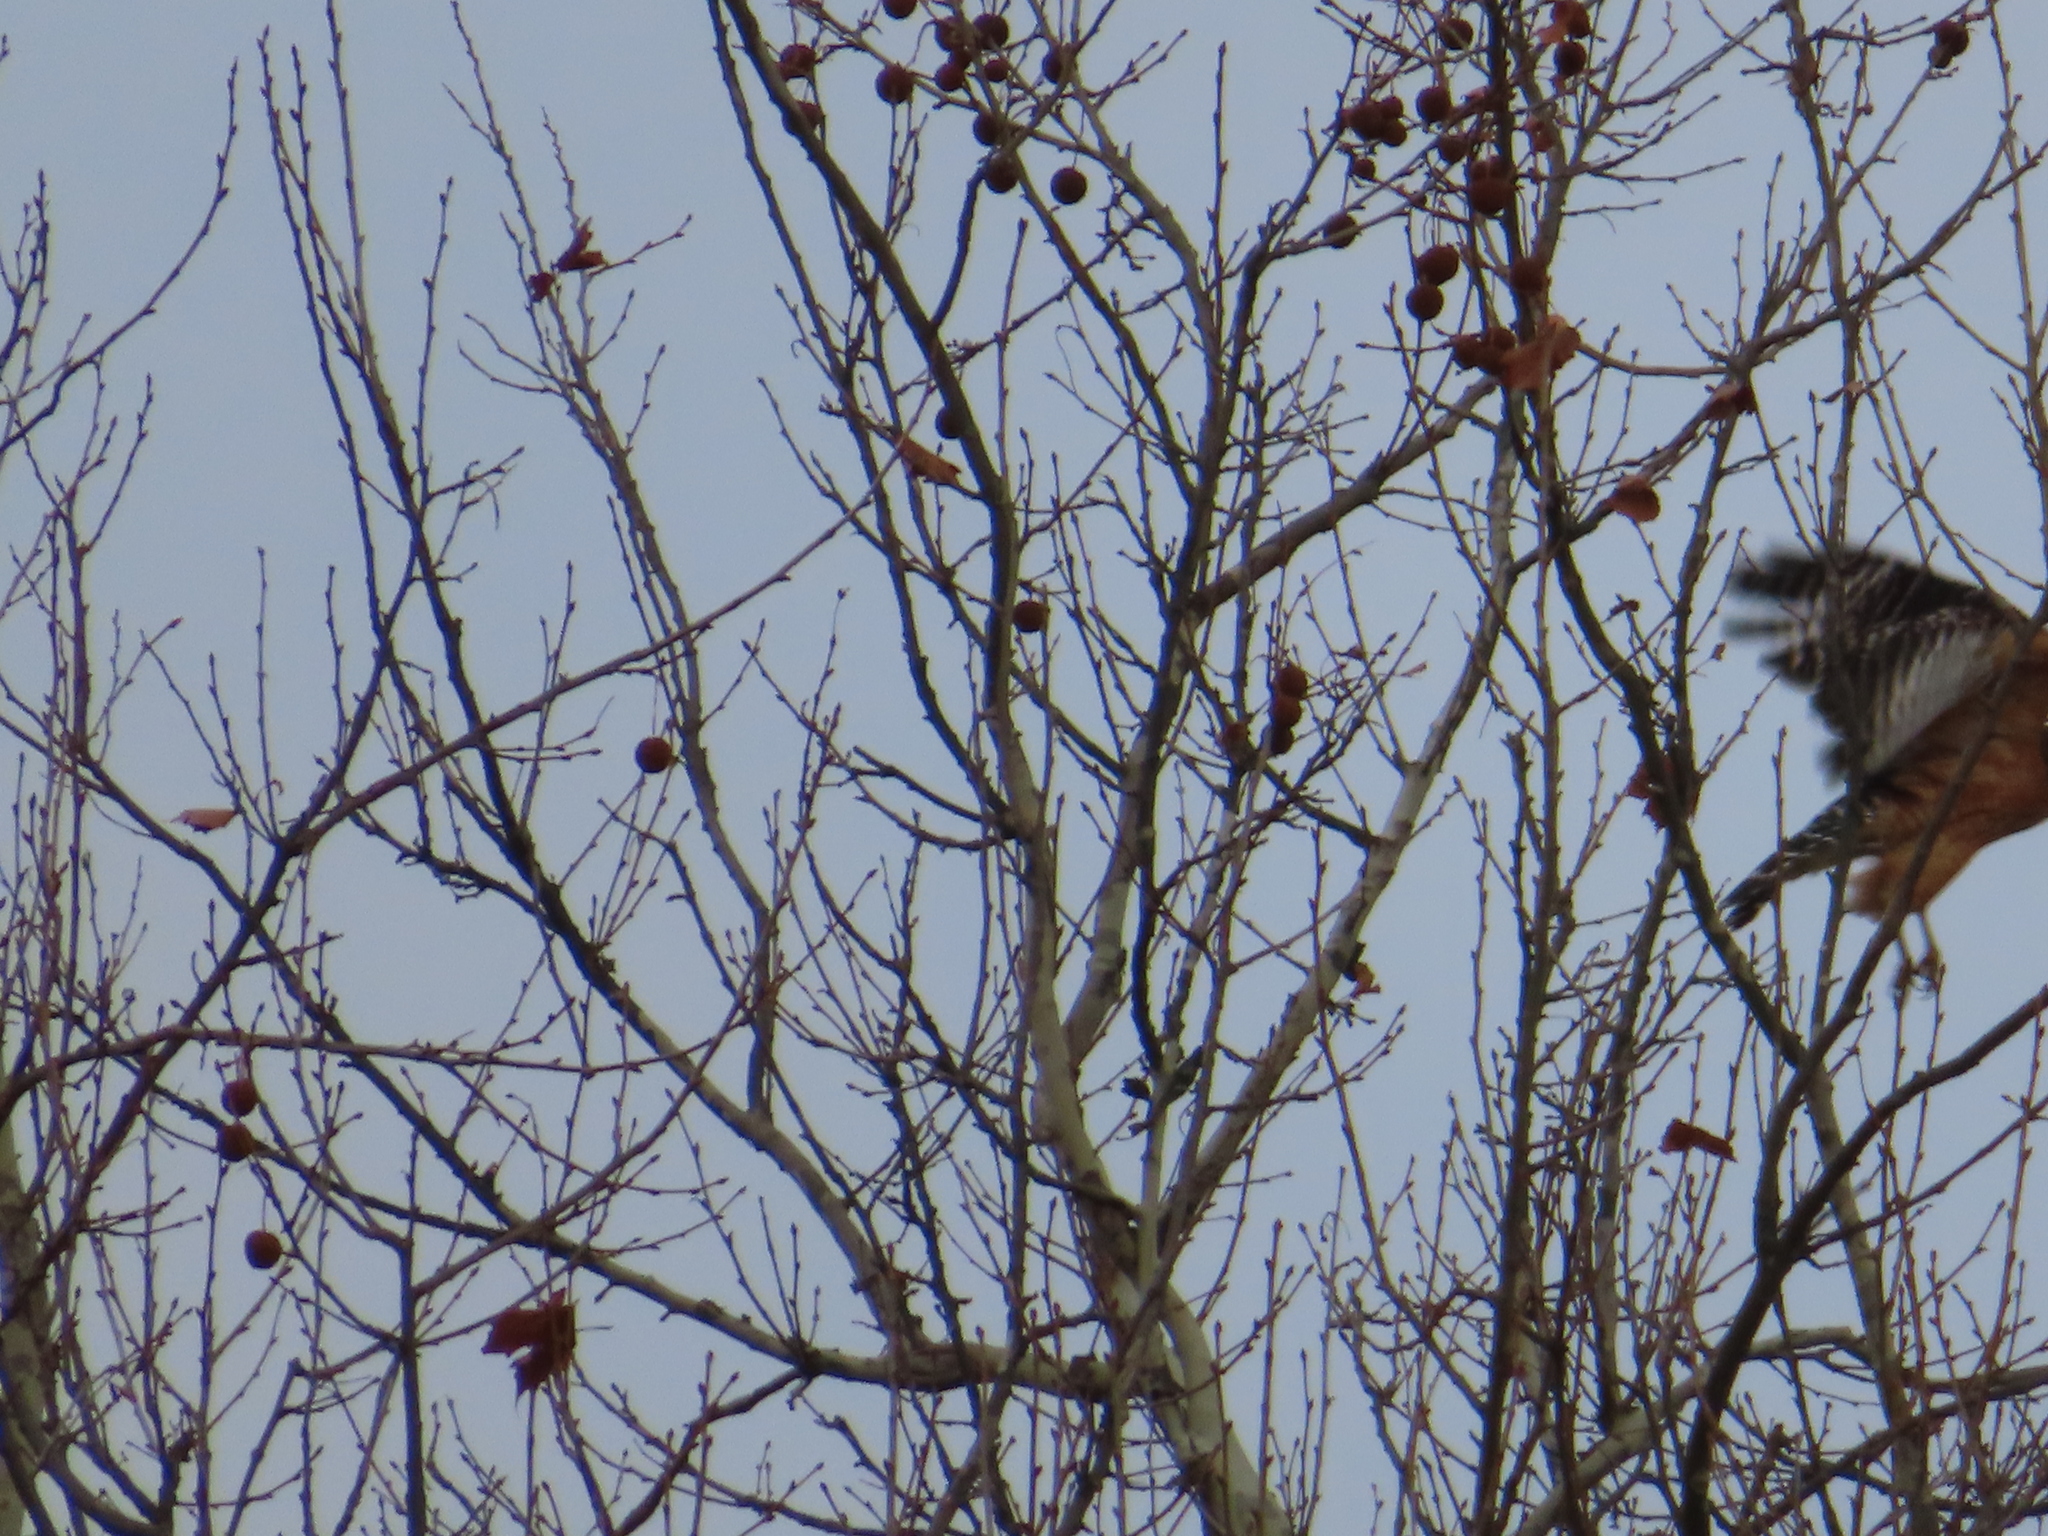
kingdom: Animalia
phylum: Chordata
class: Aves
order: Accipitriformes
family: Accipitridae
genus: Buteo
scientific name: Buteo lineatus
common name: Red-shouldered hawk
